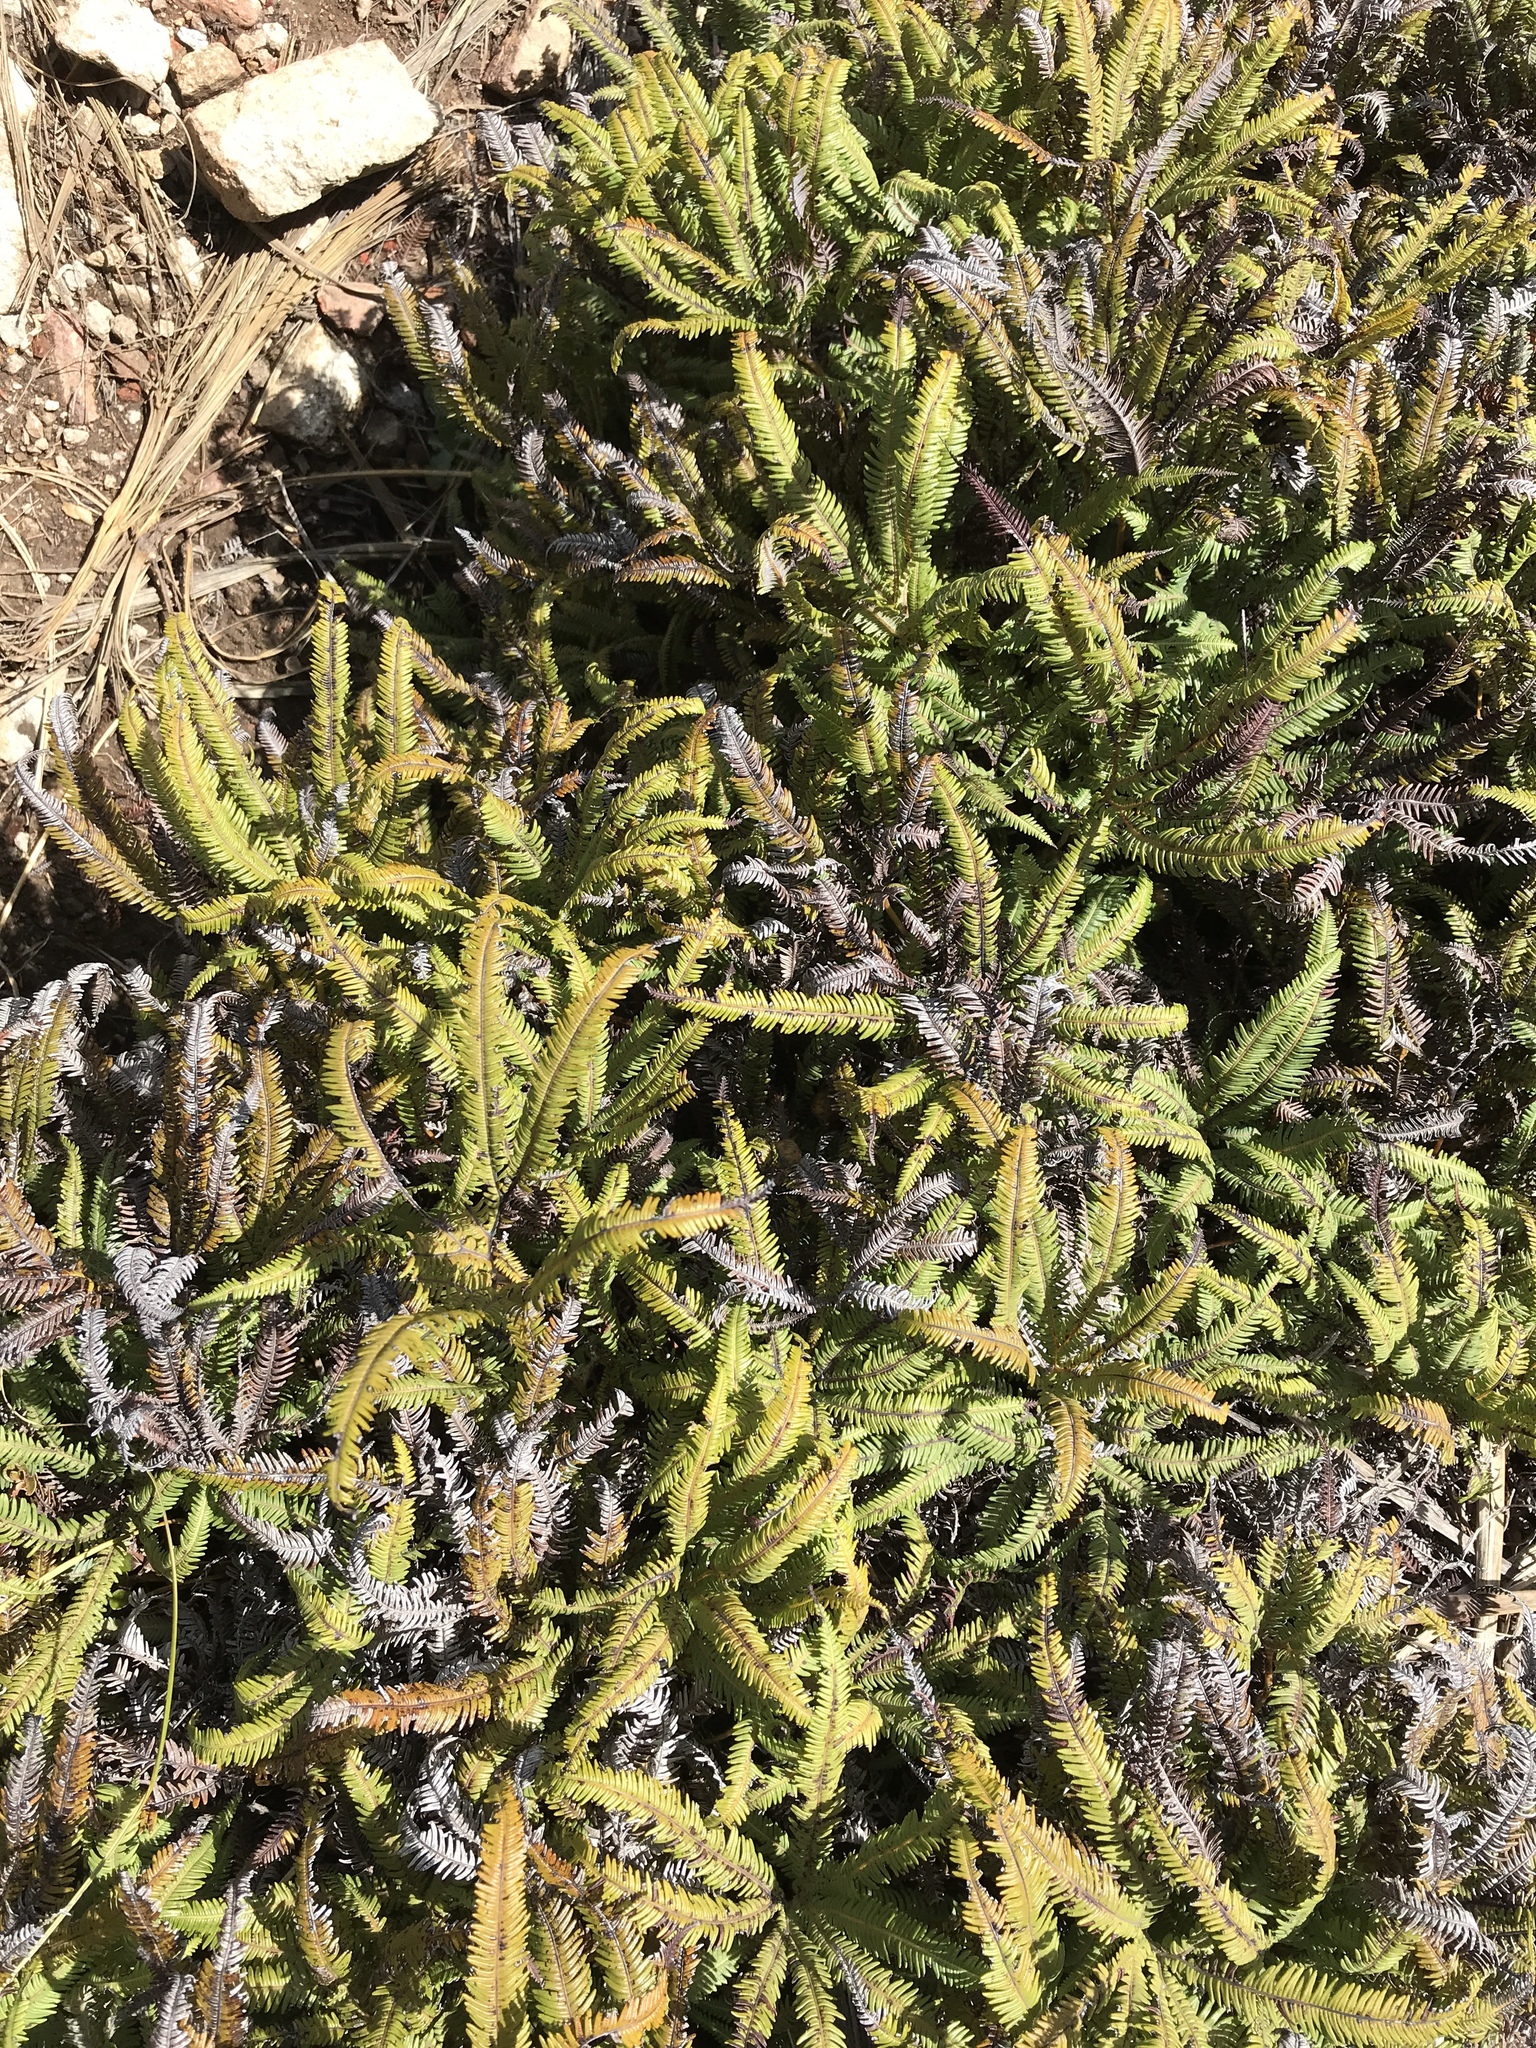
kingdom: Plantae
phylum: Tracheophyta
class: Polypodiopsida
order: Gleicheniales
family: Gleicheniaceae
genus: Sticherus
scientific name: Sticherus cunninghamii
